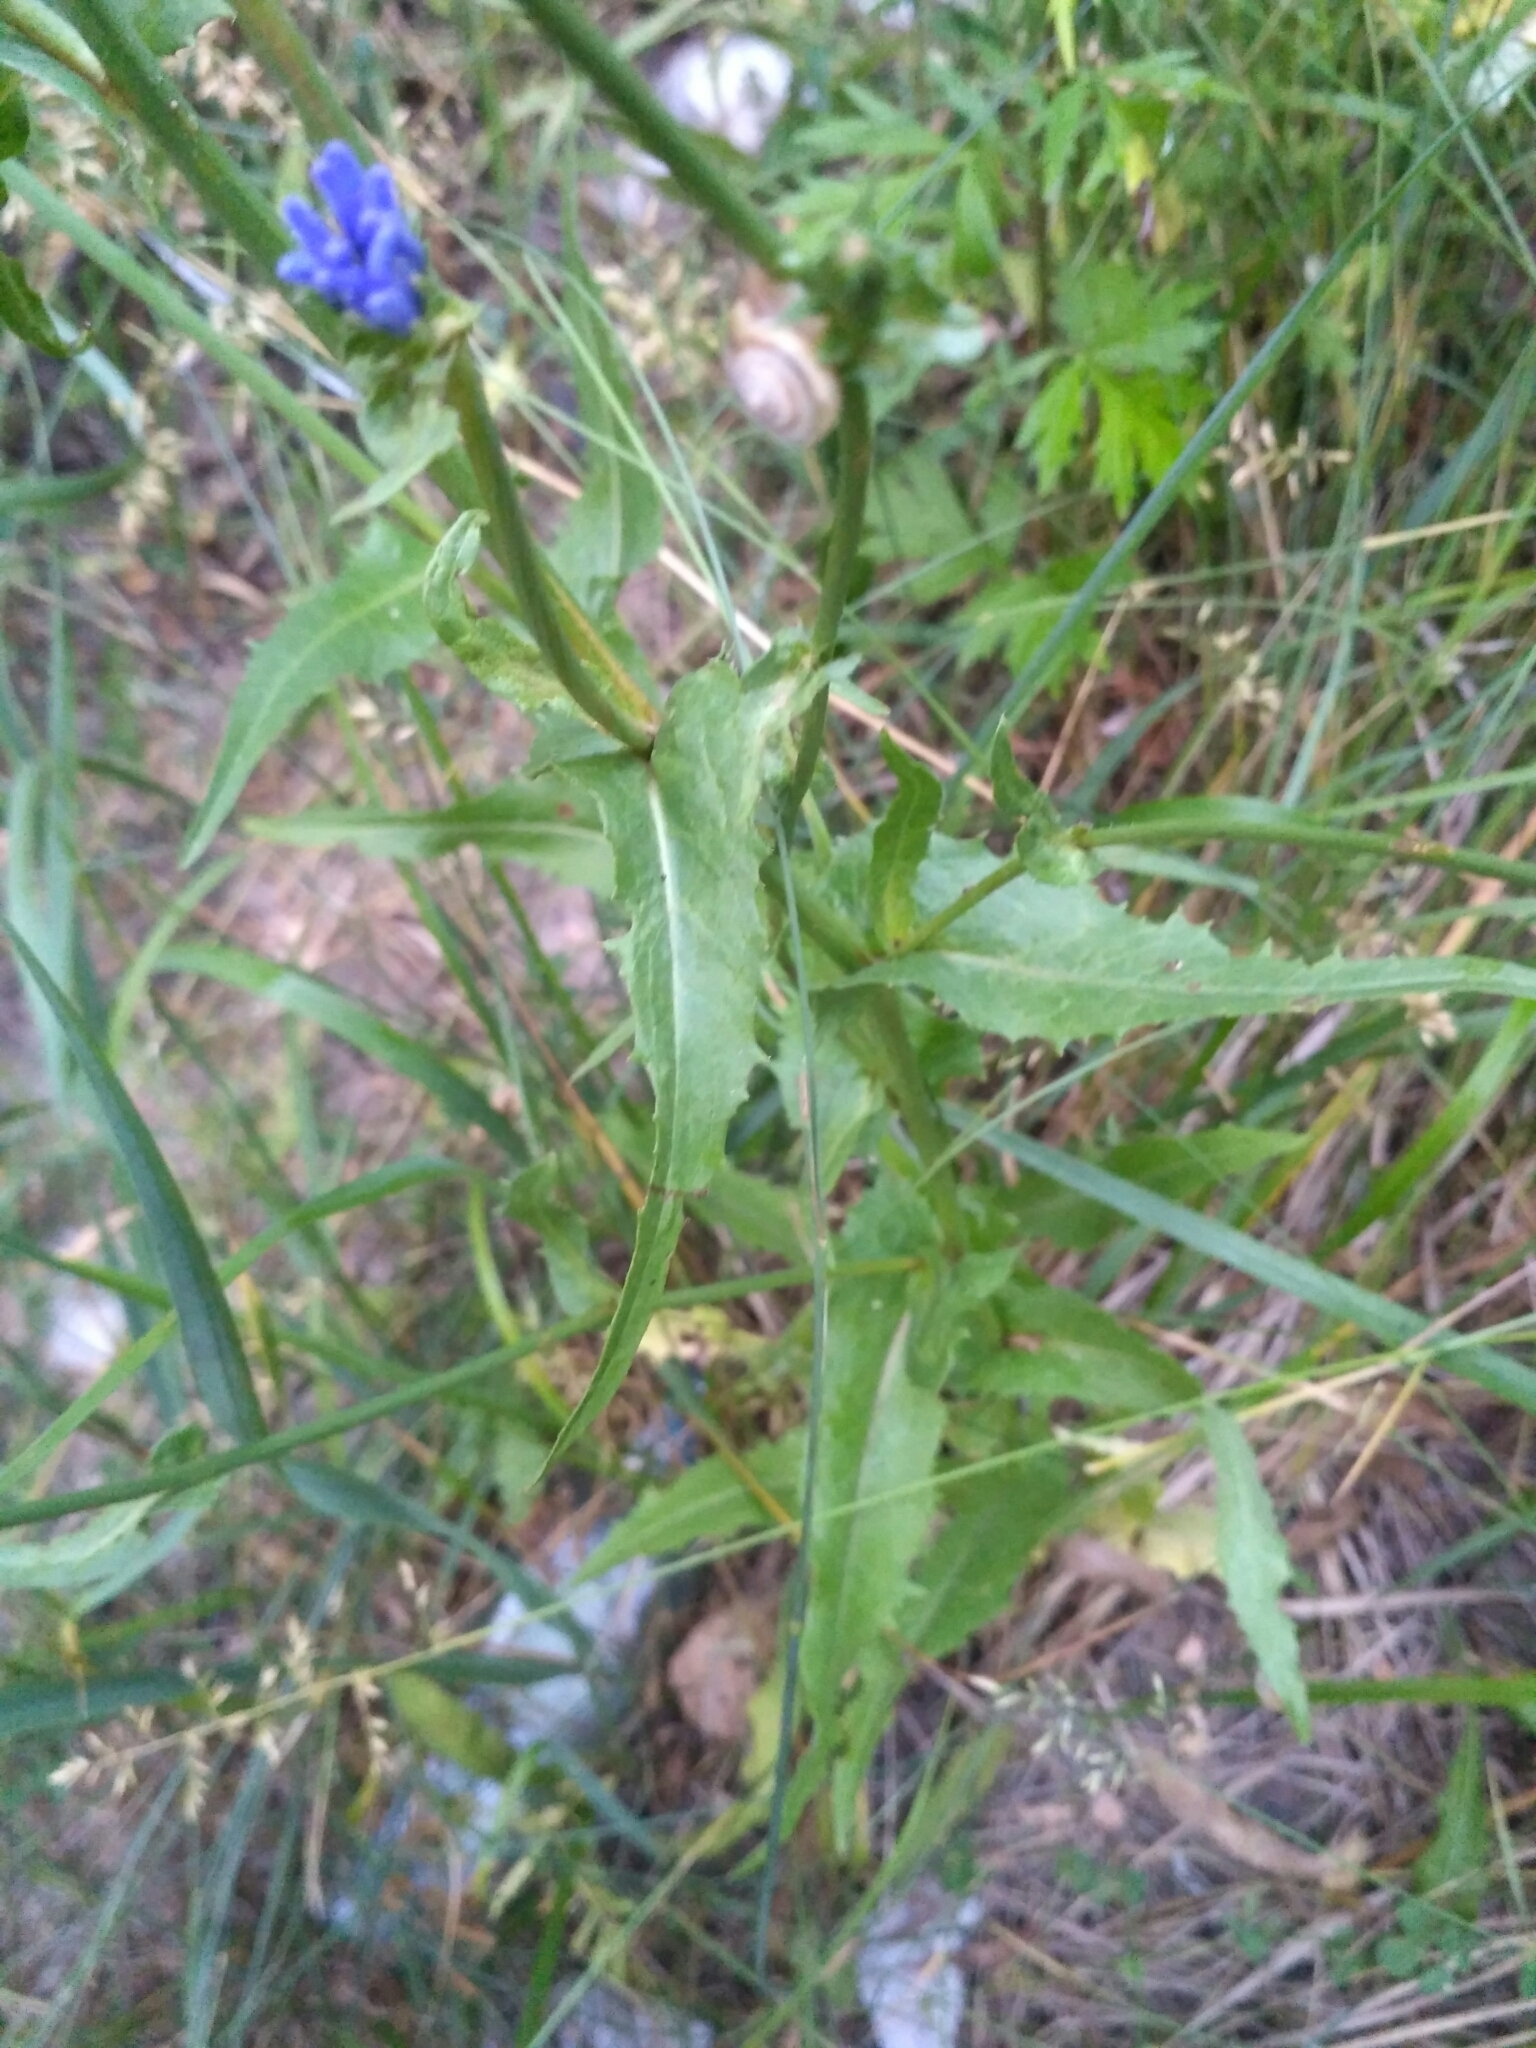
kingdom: Plantae
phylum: Tracheophyta
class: Magnoliopsida
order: Asterales
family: Asteraceae
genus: Cichorium
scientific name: Cichorium intybus
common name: Chicory
